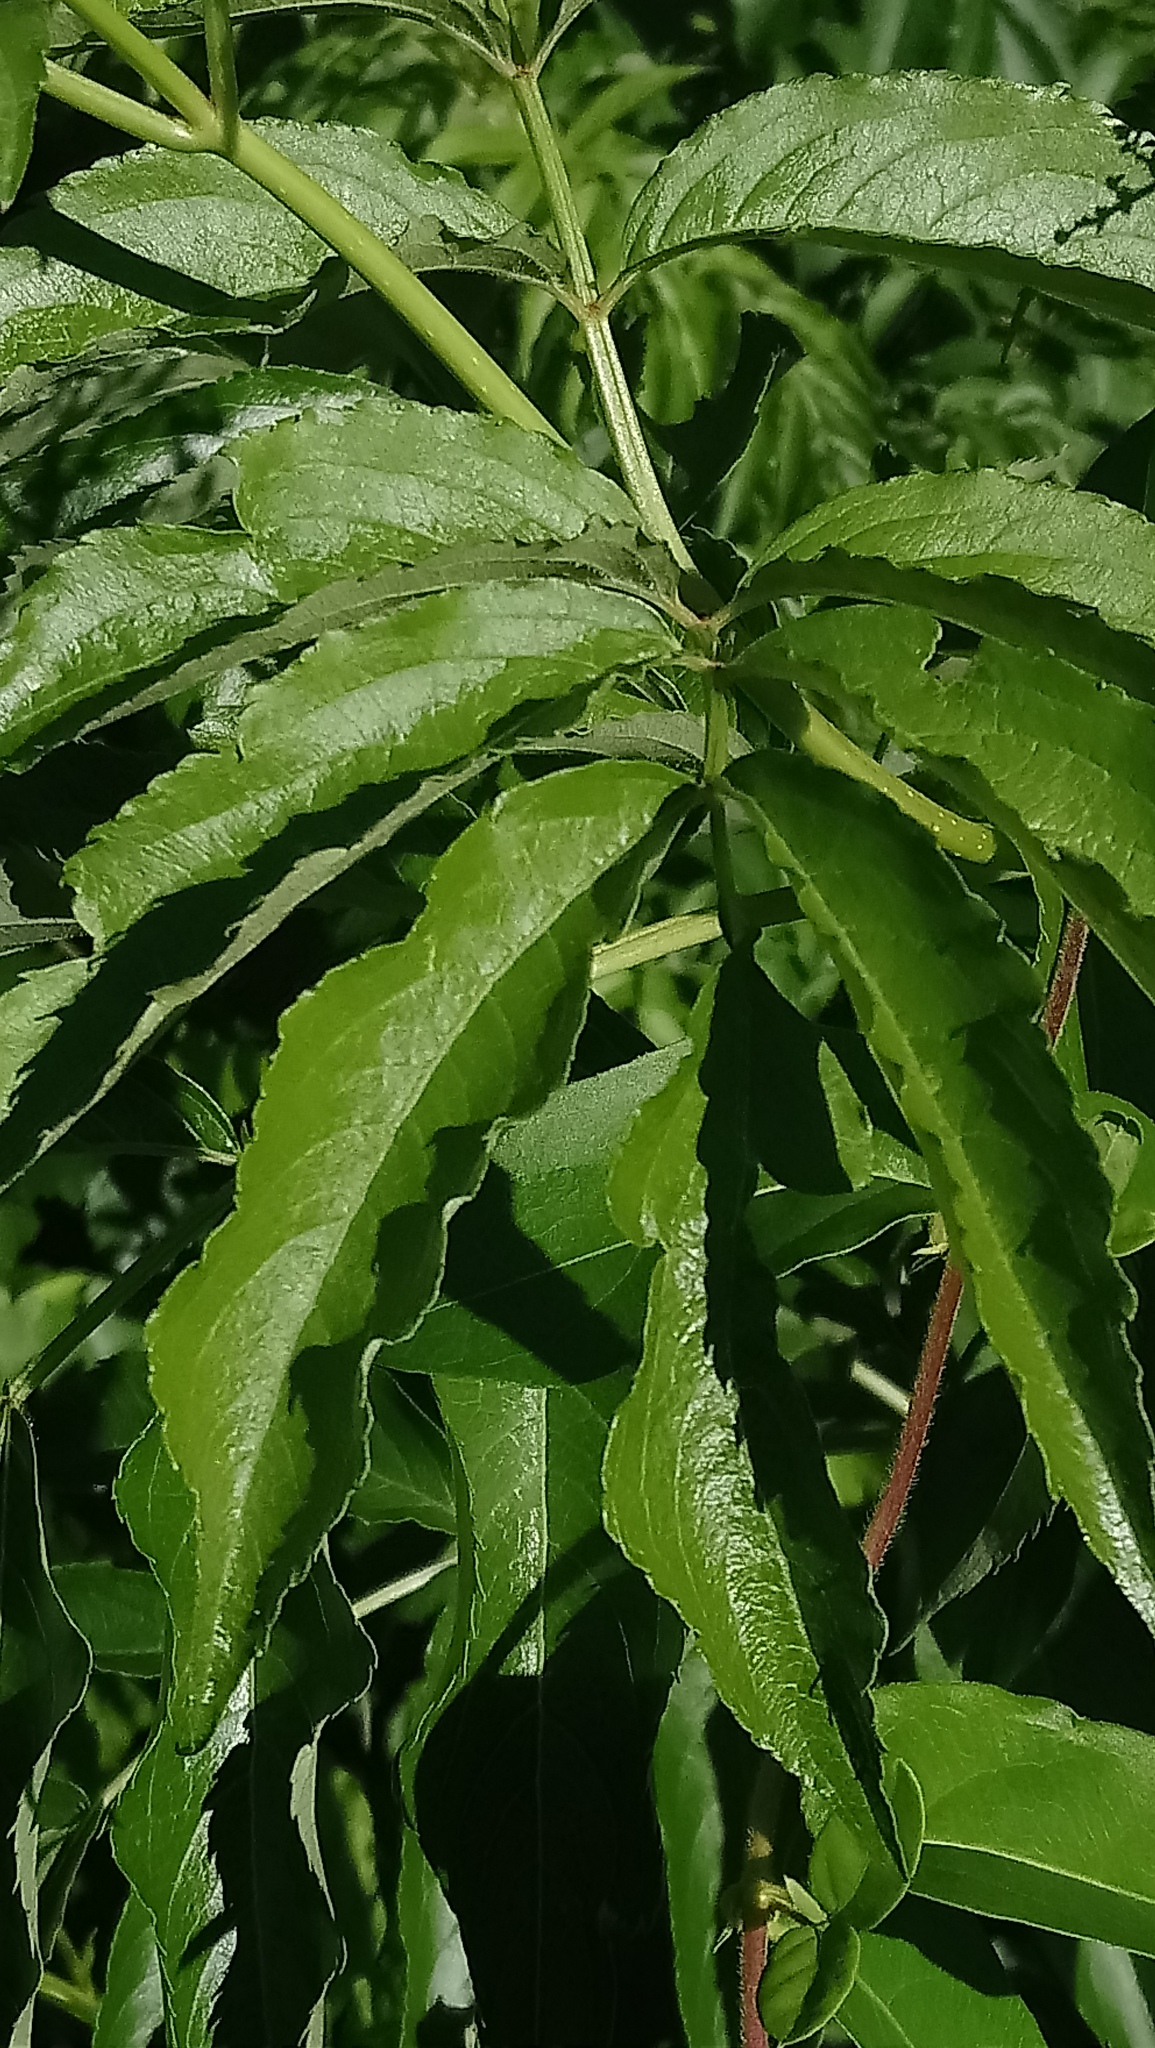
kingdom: Plantae
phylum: Tracheophyta
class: Magnoliopsida
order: Dipsacales
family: Viburnaceae
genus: Sambucus
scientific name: Sambucus canadensis
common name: American elder
